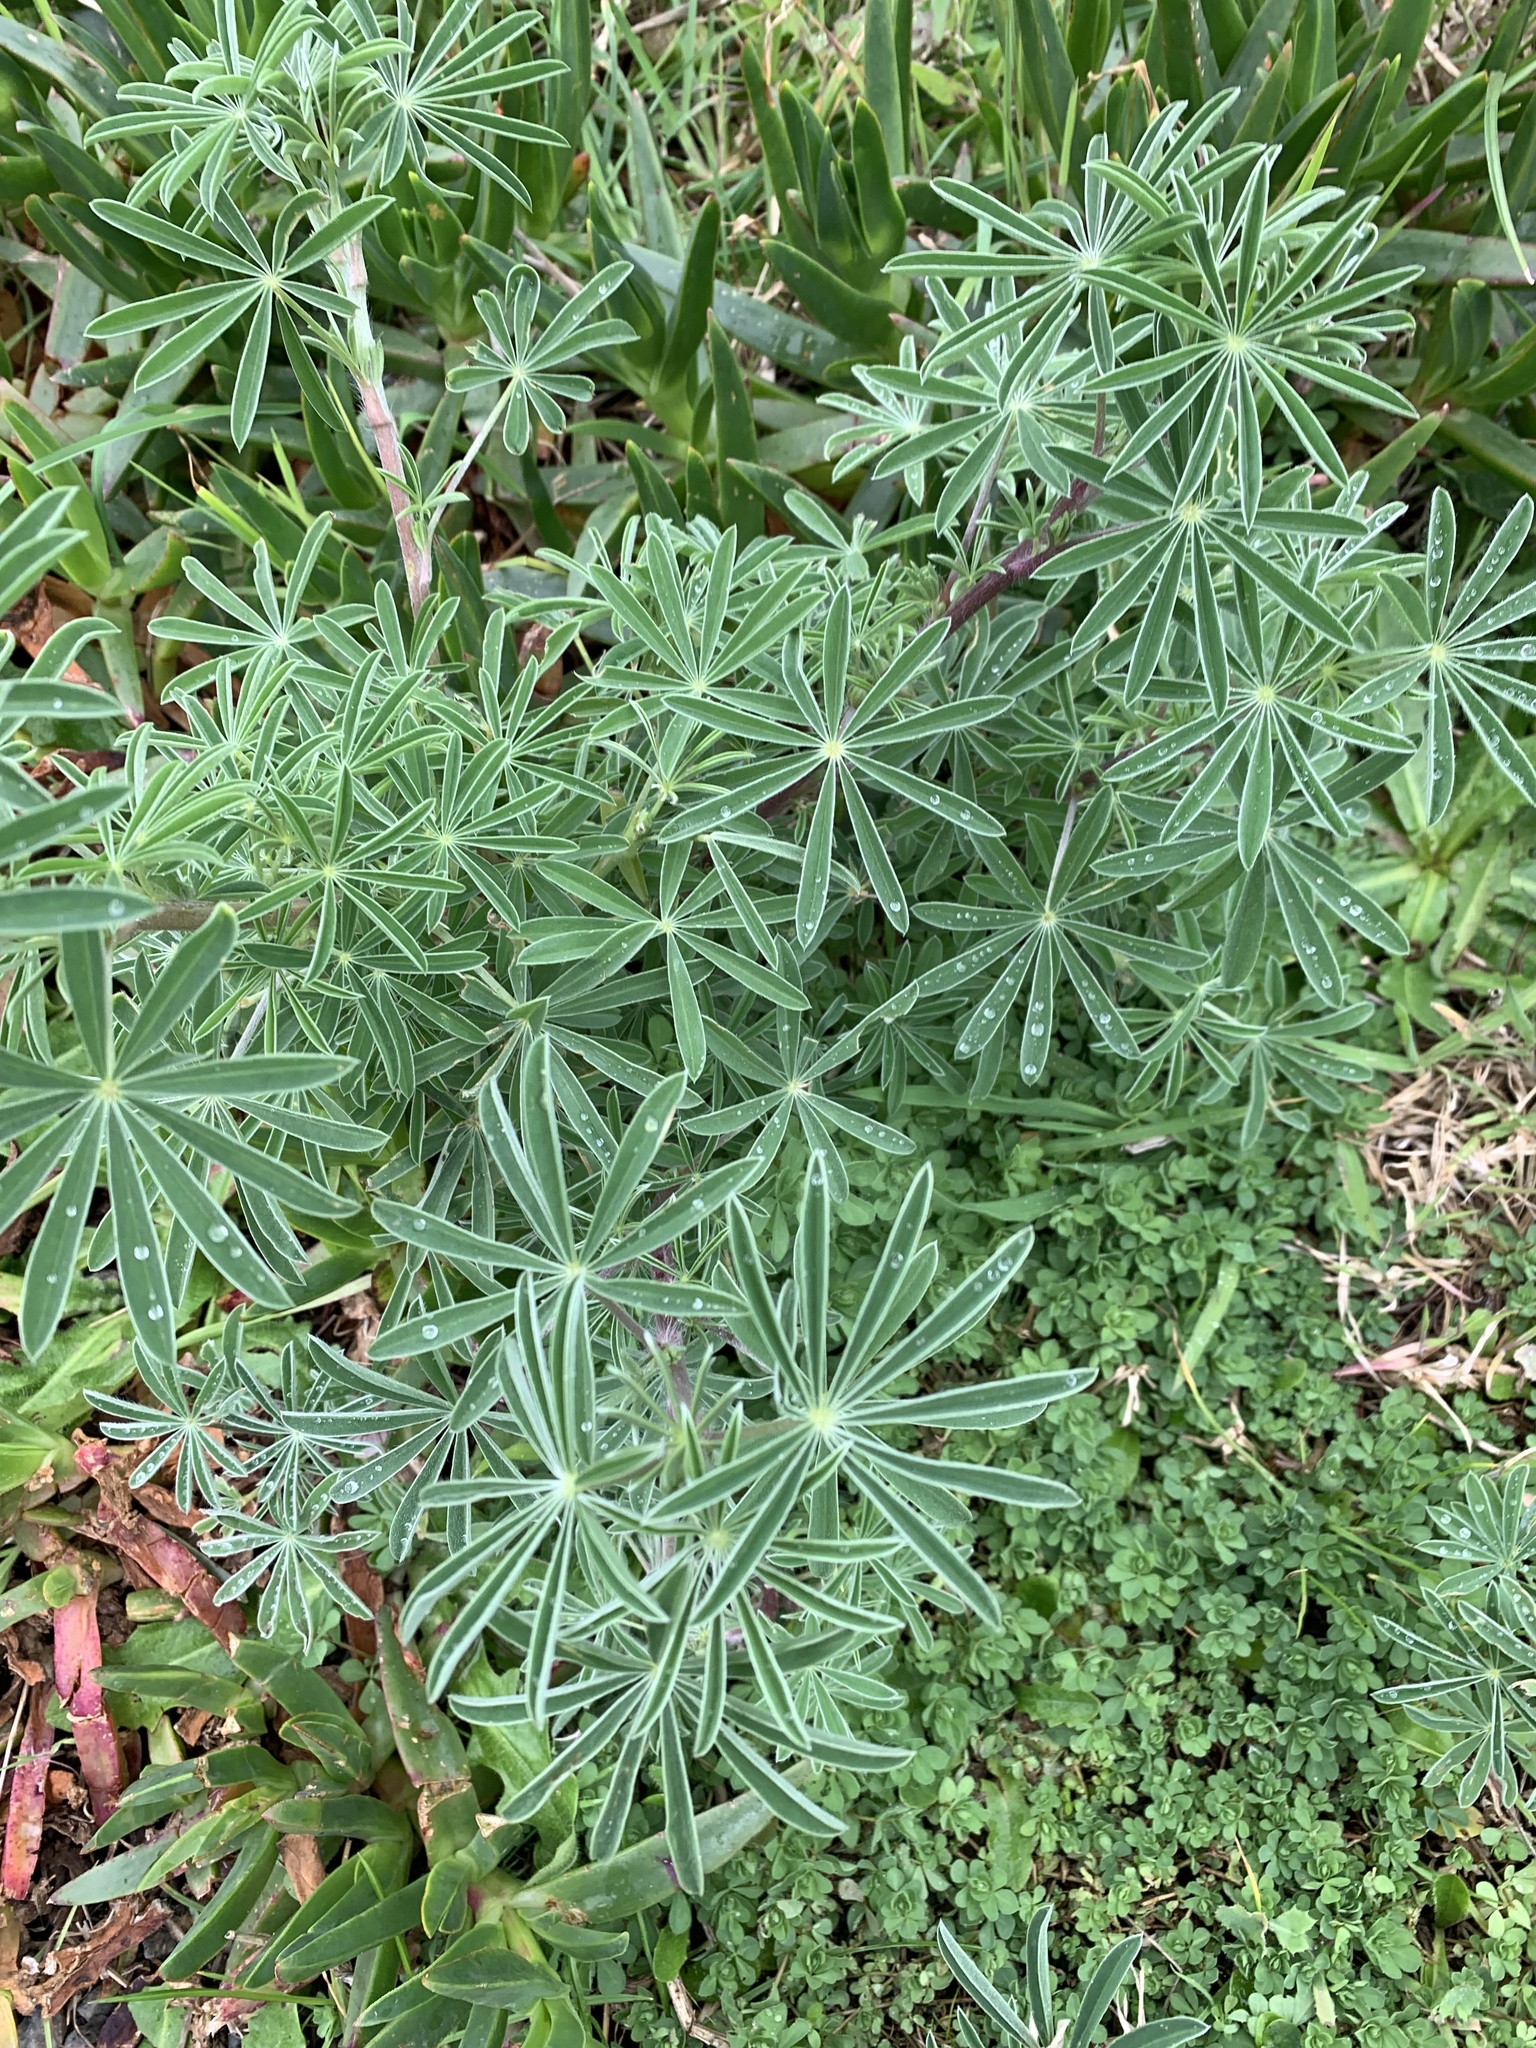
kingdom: Plantae
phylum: Tracheophyta
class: Magnoliopsida
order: Fabales
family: Fabaceae
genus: Lupinus
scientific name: Lupinus arboreus
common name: Yellow bush lupine
